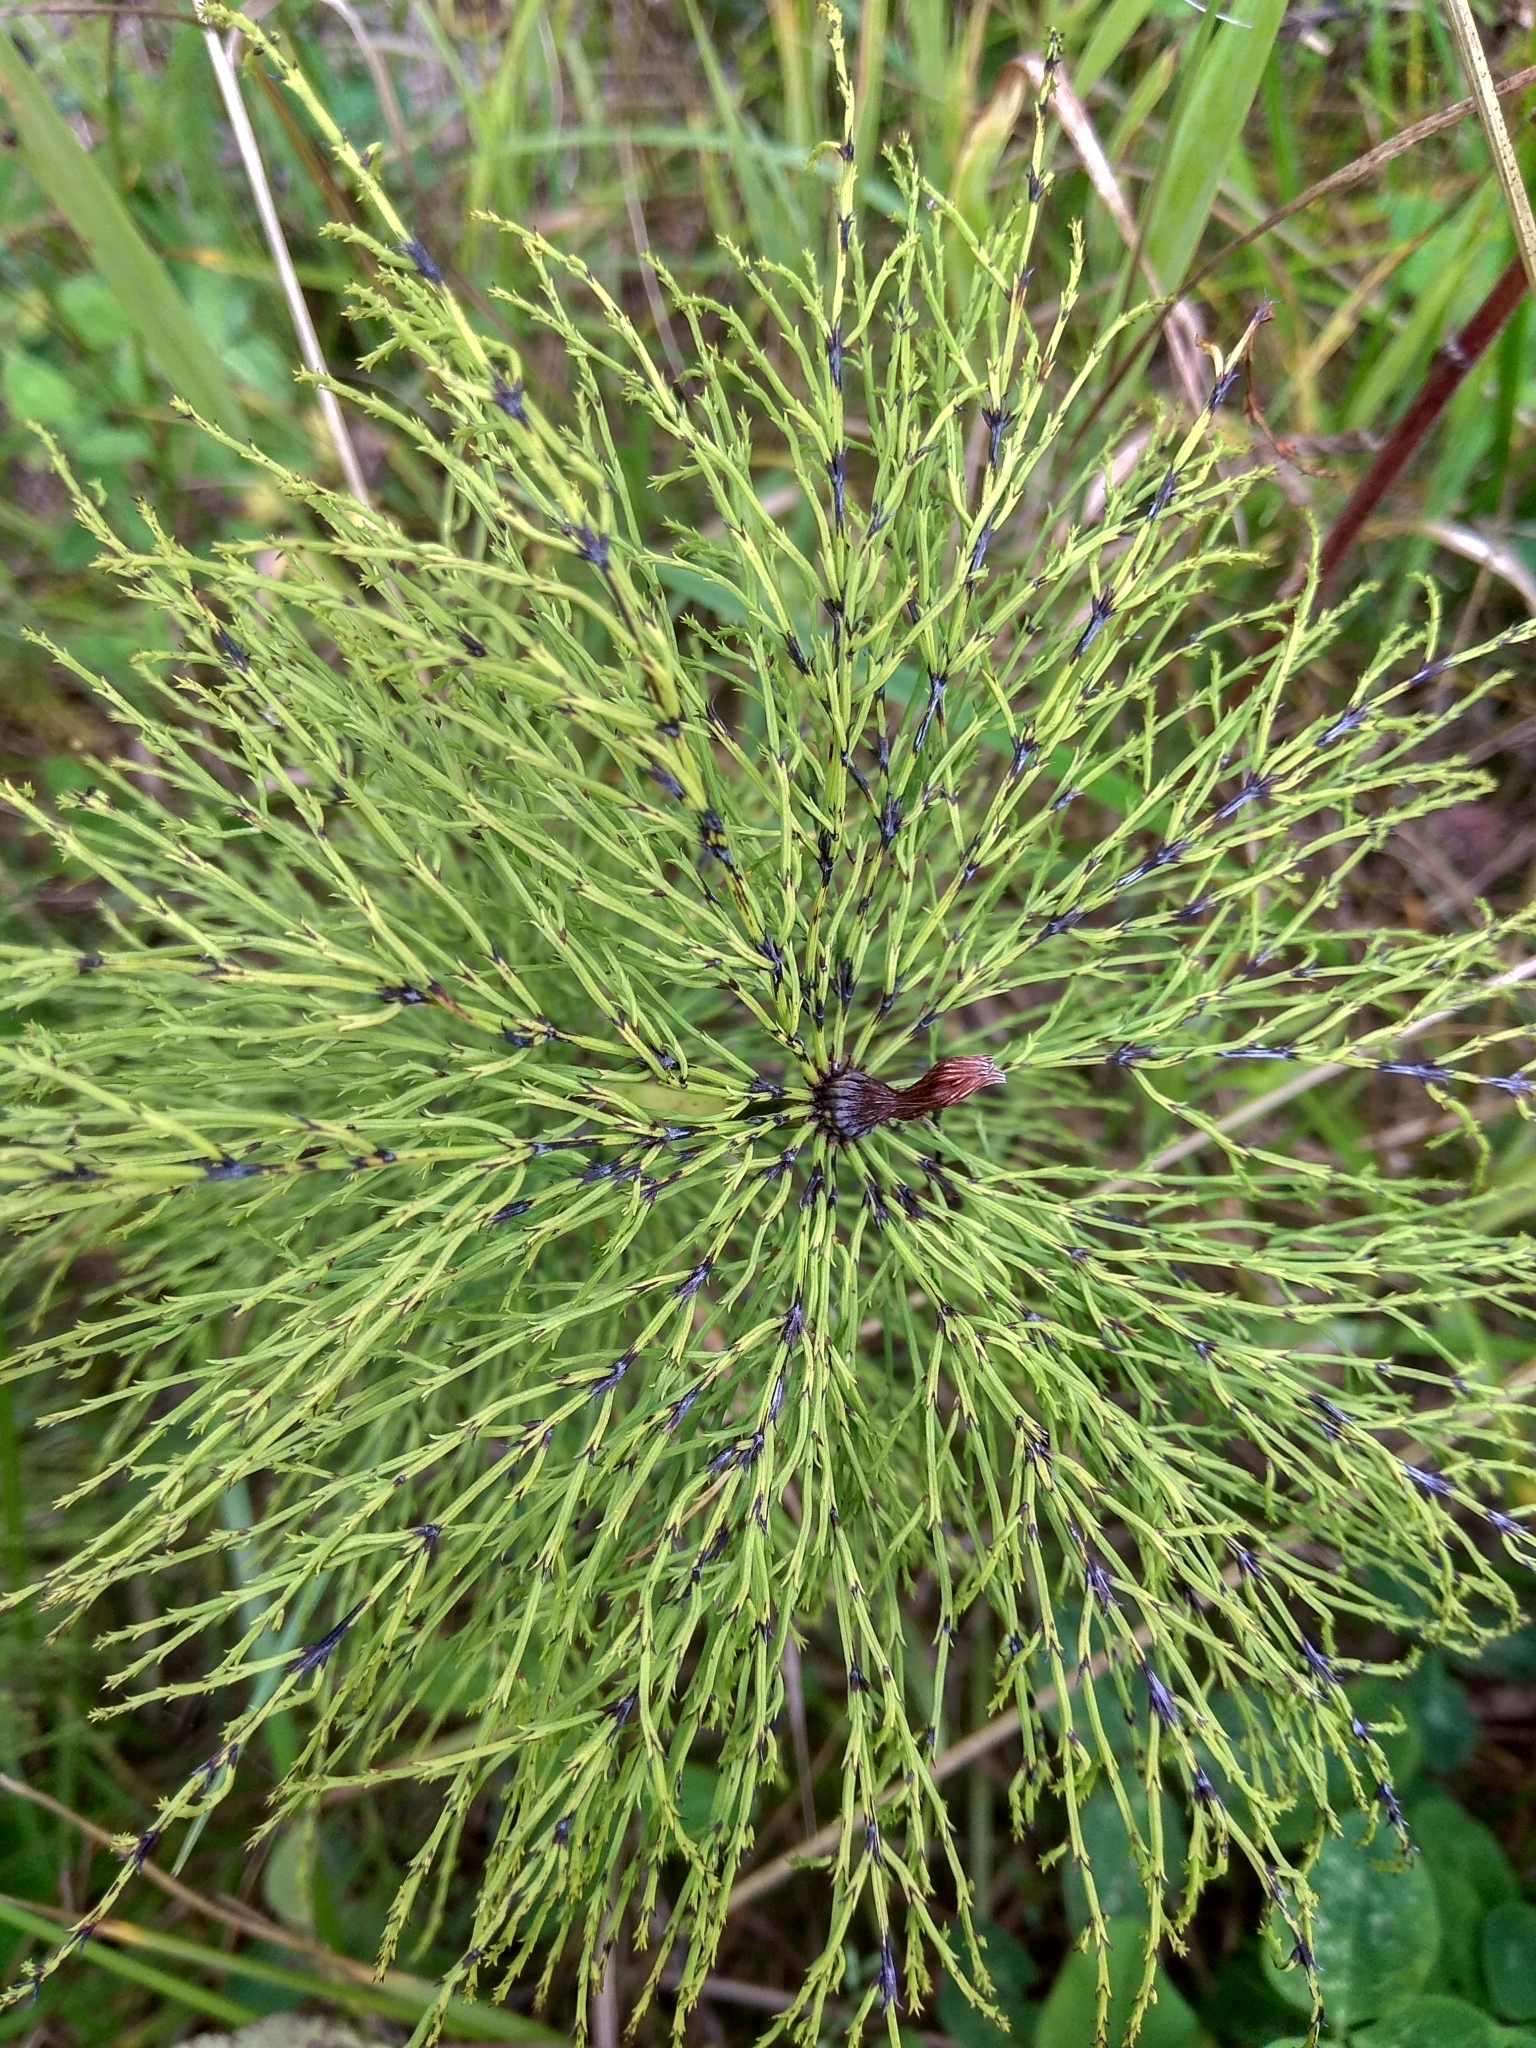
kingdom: Plantae
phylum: Tracheophyta
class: Polypodiopsida
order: Equisetales
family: Equisetaceae
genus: Equisetum
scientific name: Equisetum sylvaticum
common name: Wood horsetail
